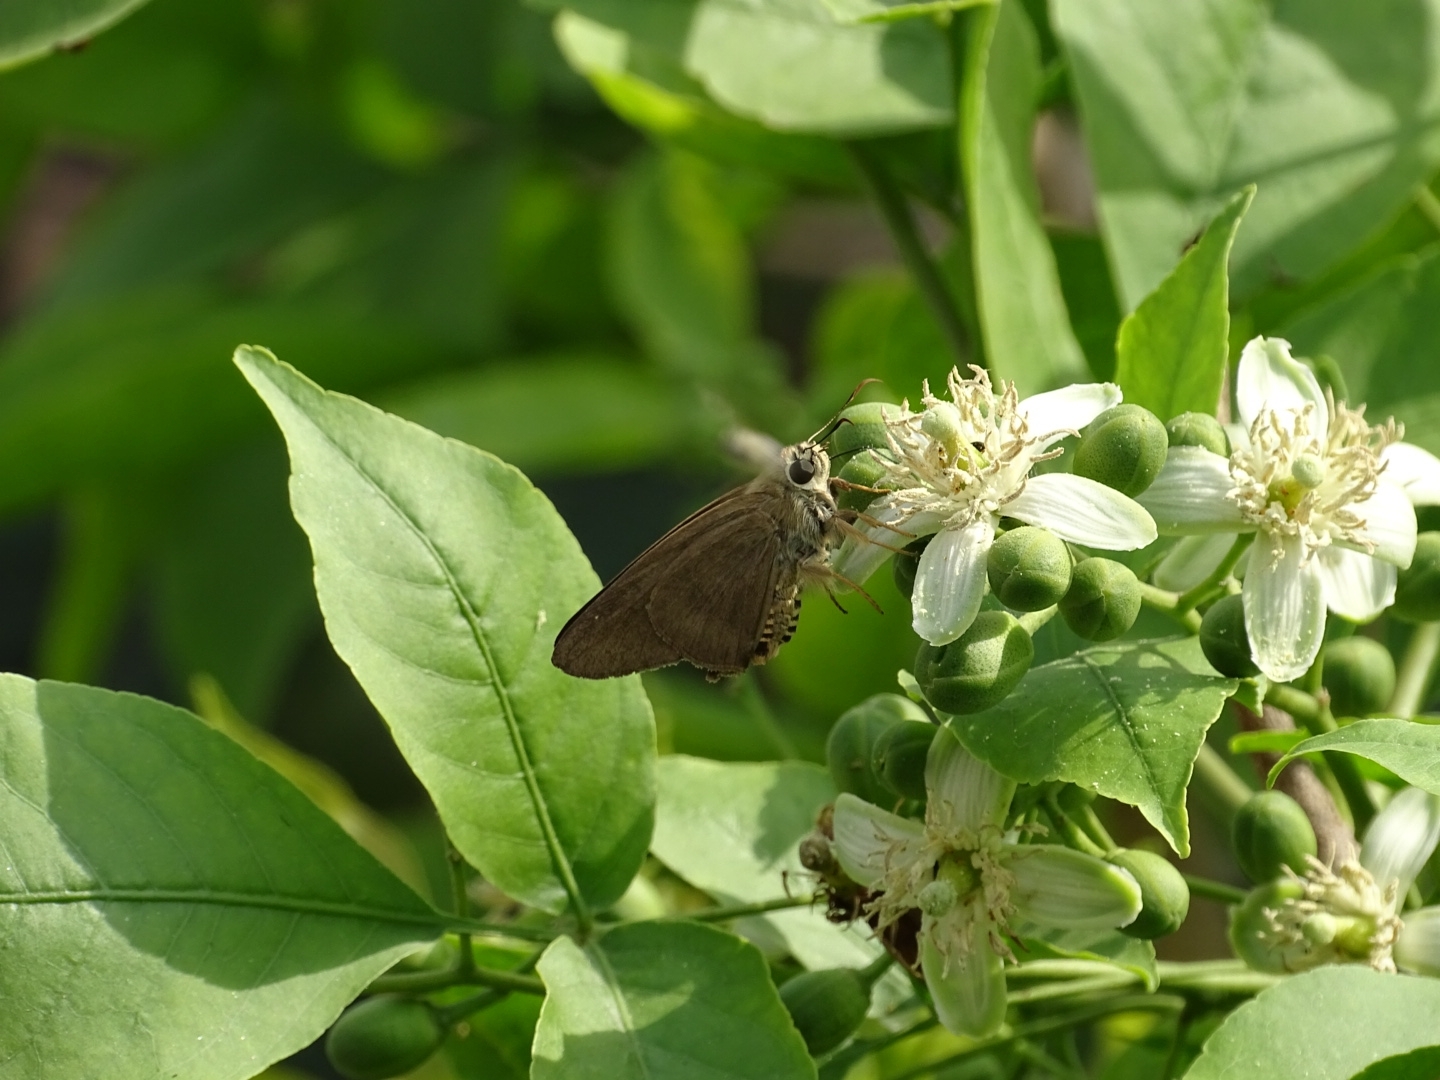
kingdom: Animalia
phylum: Arthropoda
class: Insecta
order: Lepidoptera
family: Hesperiidae
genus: Badamia
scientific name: Badamia exclamationis
